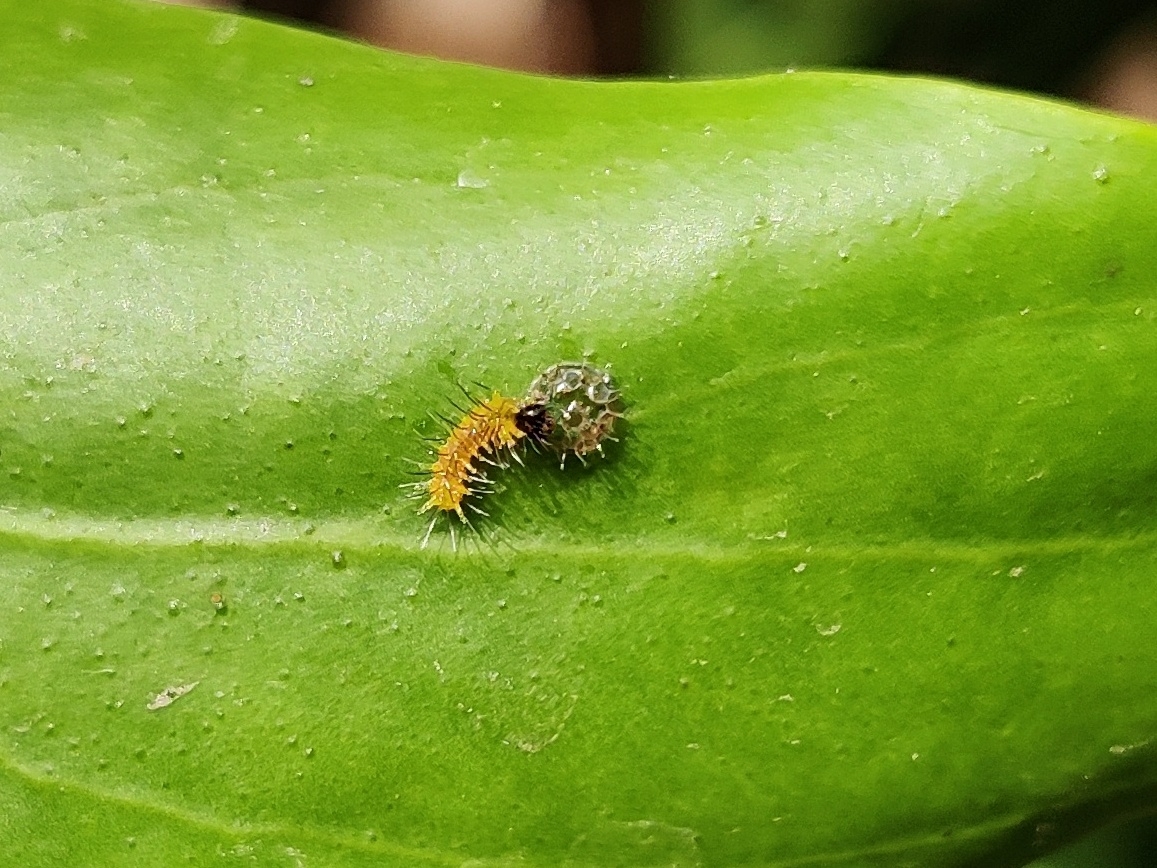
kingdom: Animalia
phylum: Arthropoda
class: Insecta
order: Lepidoptera
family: Nymphalidae
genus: Euthalia
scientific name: Euthalia lubentina
